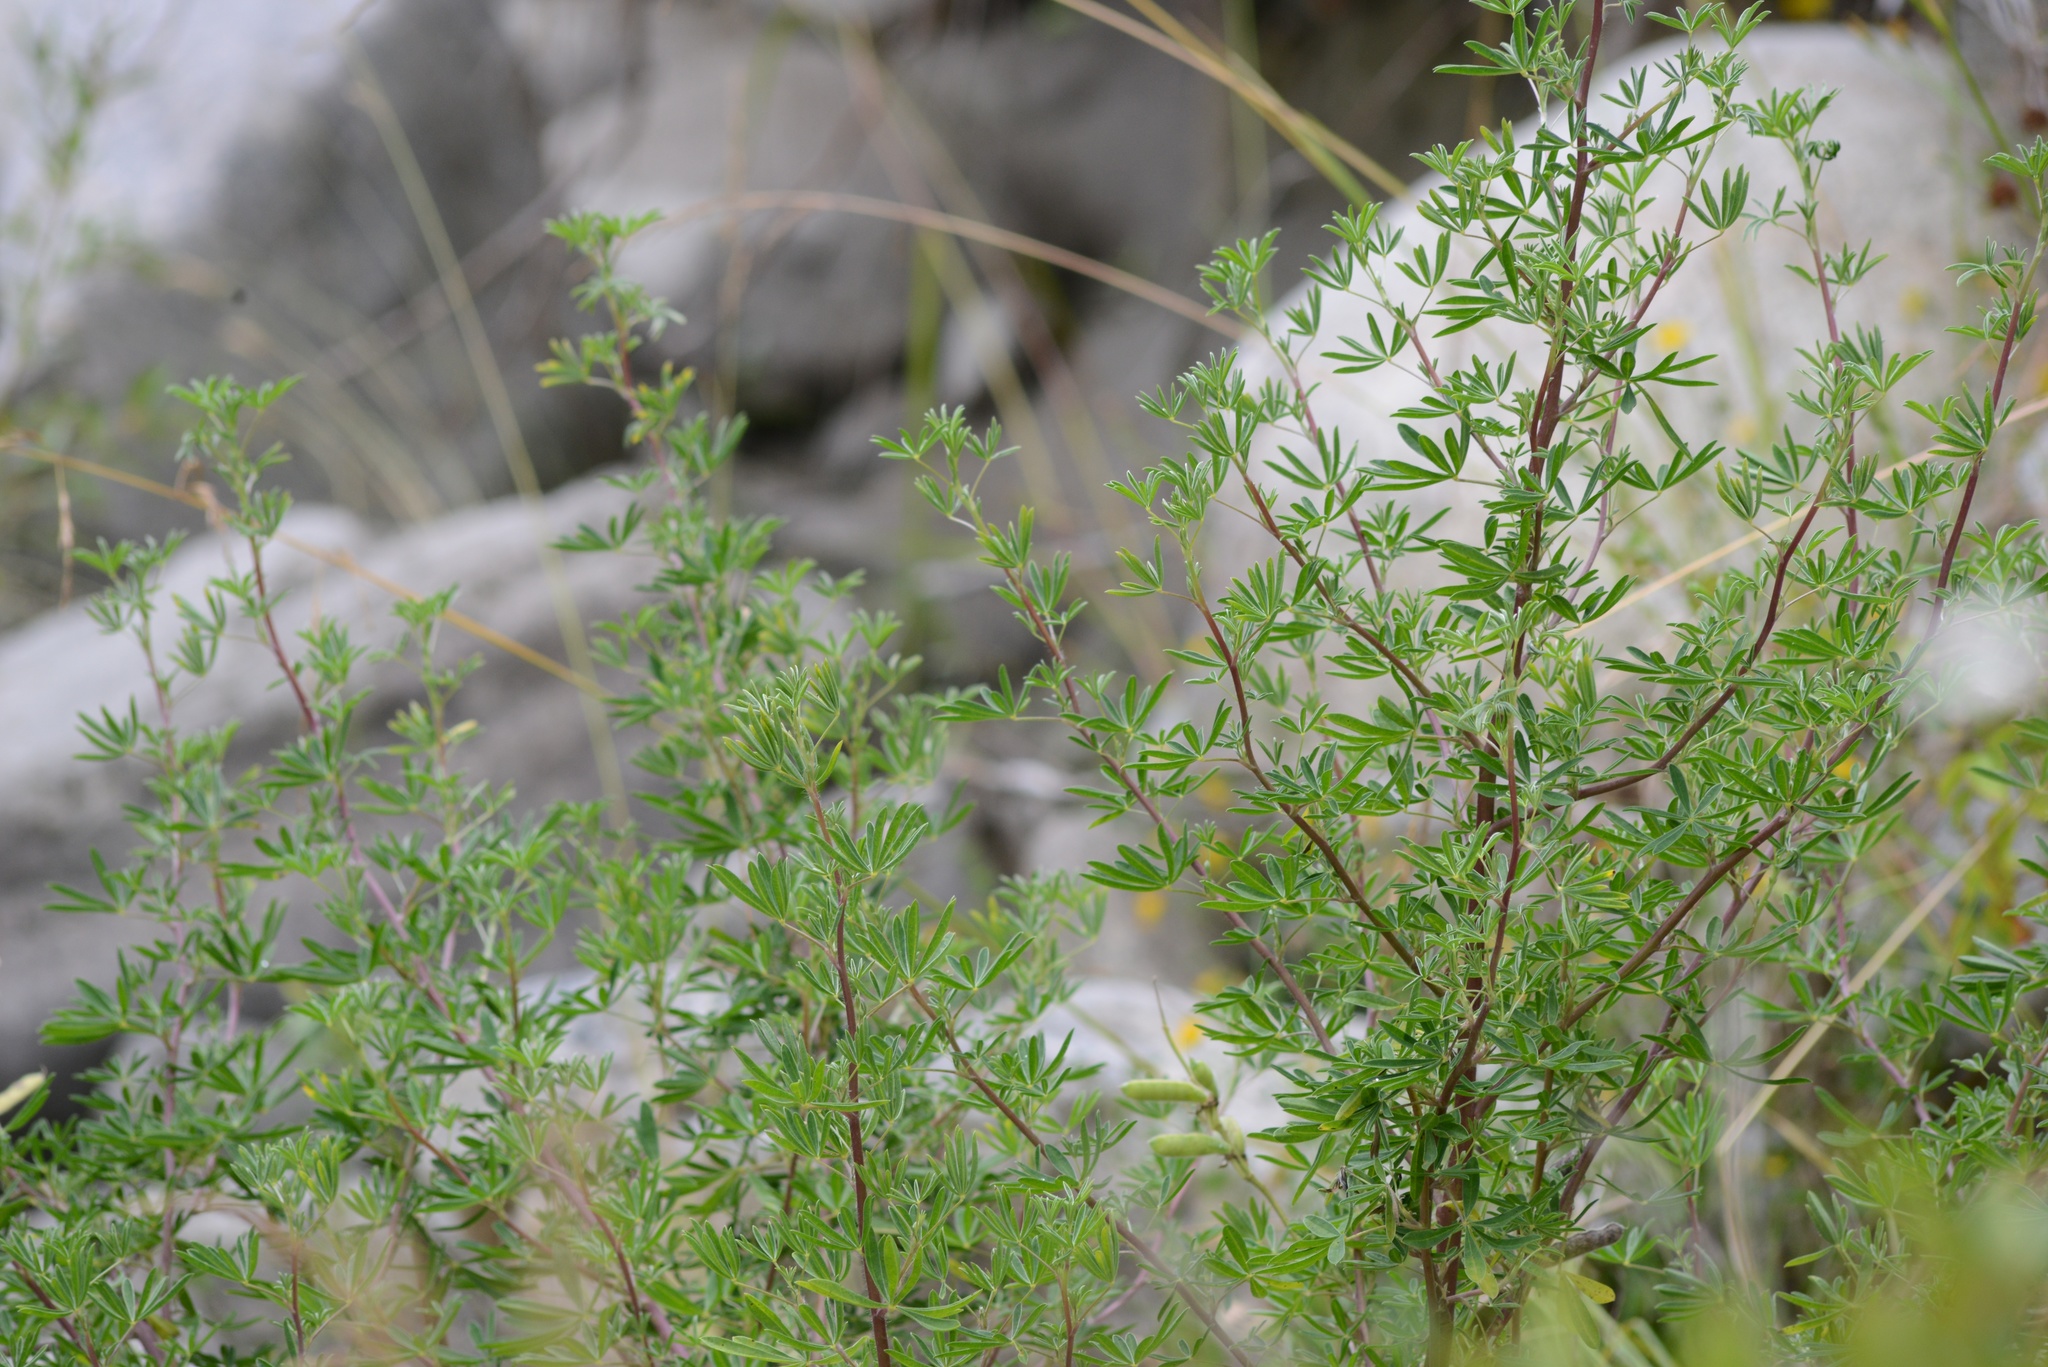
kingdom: Plantae
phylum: Tracheophyta
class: Magnoliopsida
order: Fabales
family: Fabaceae
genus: Lupinus
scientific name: Lupinus arboreus
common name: Yellow bush lupine
